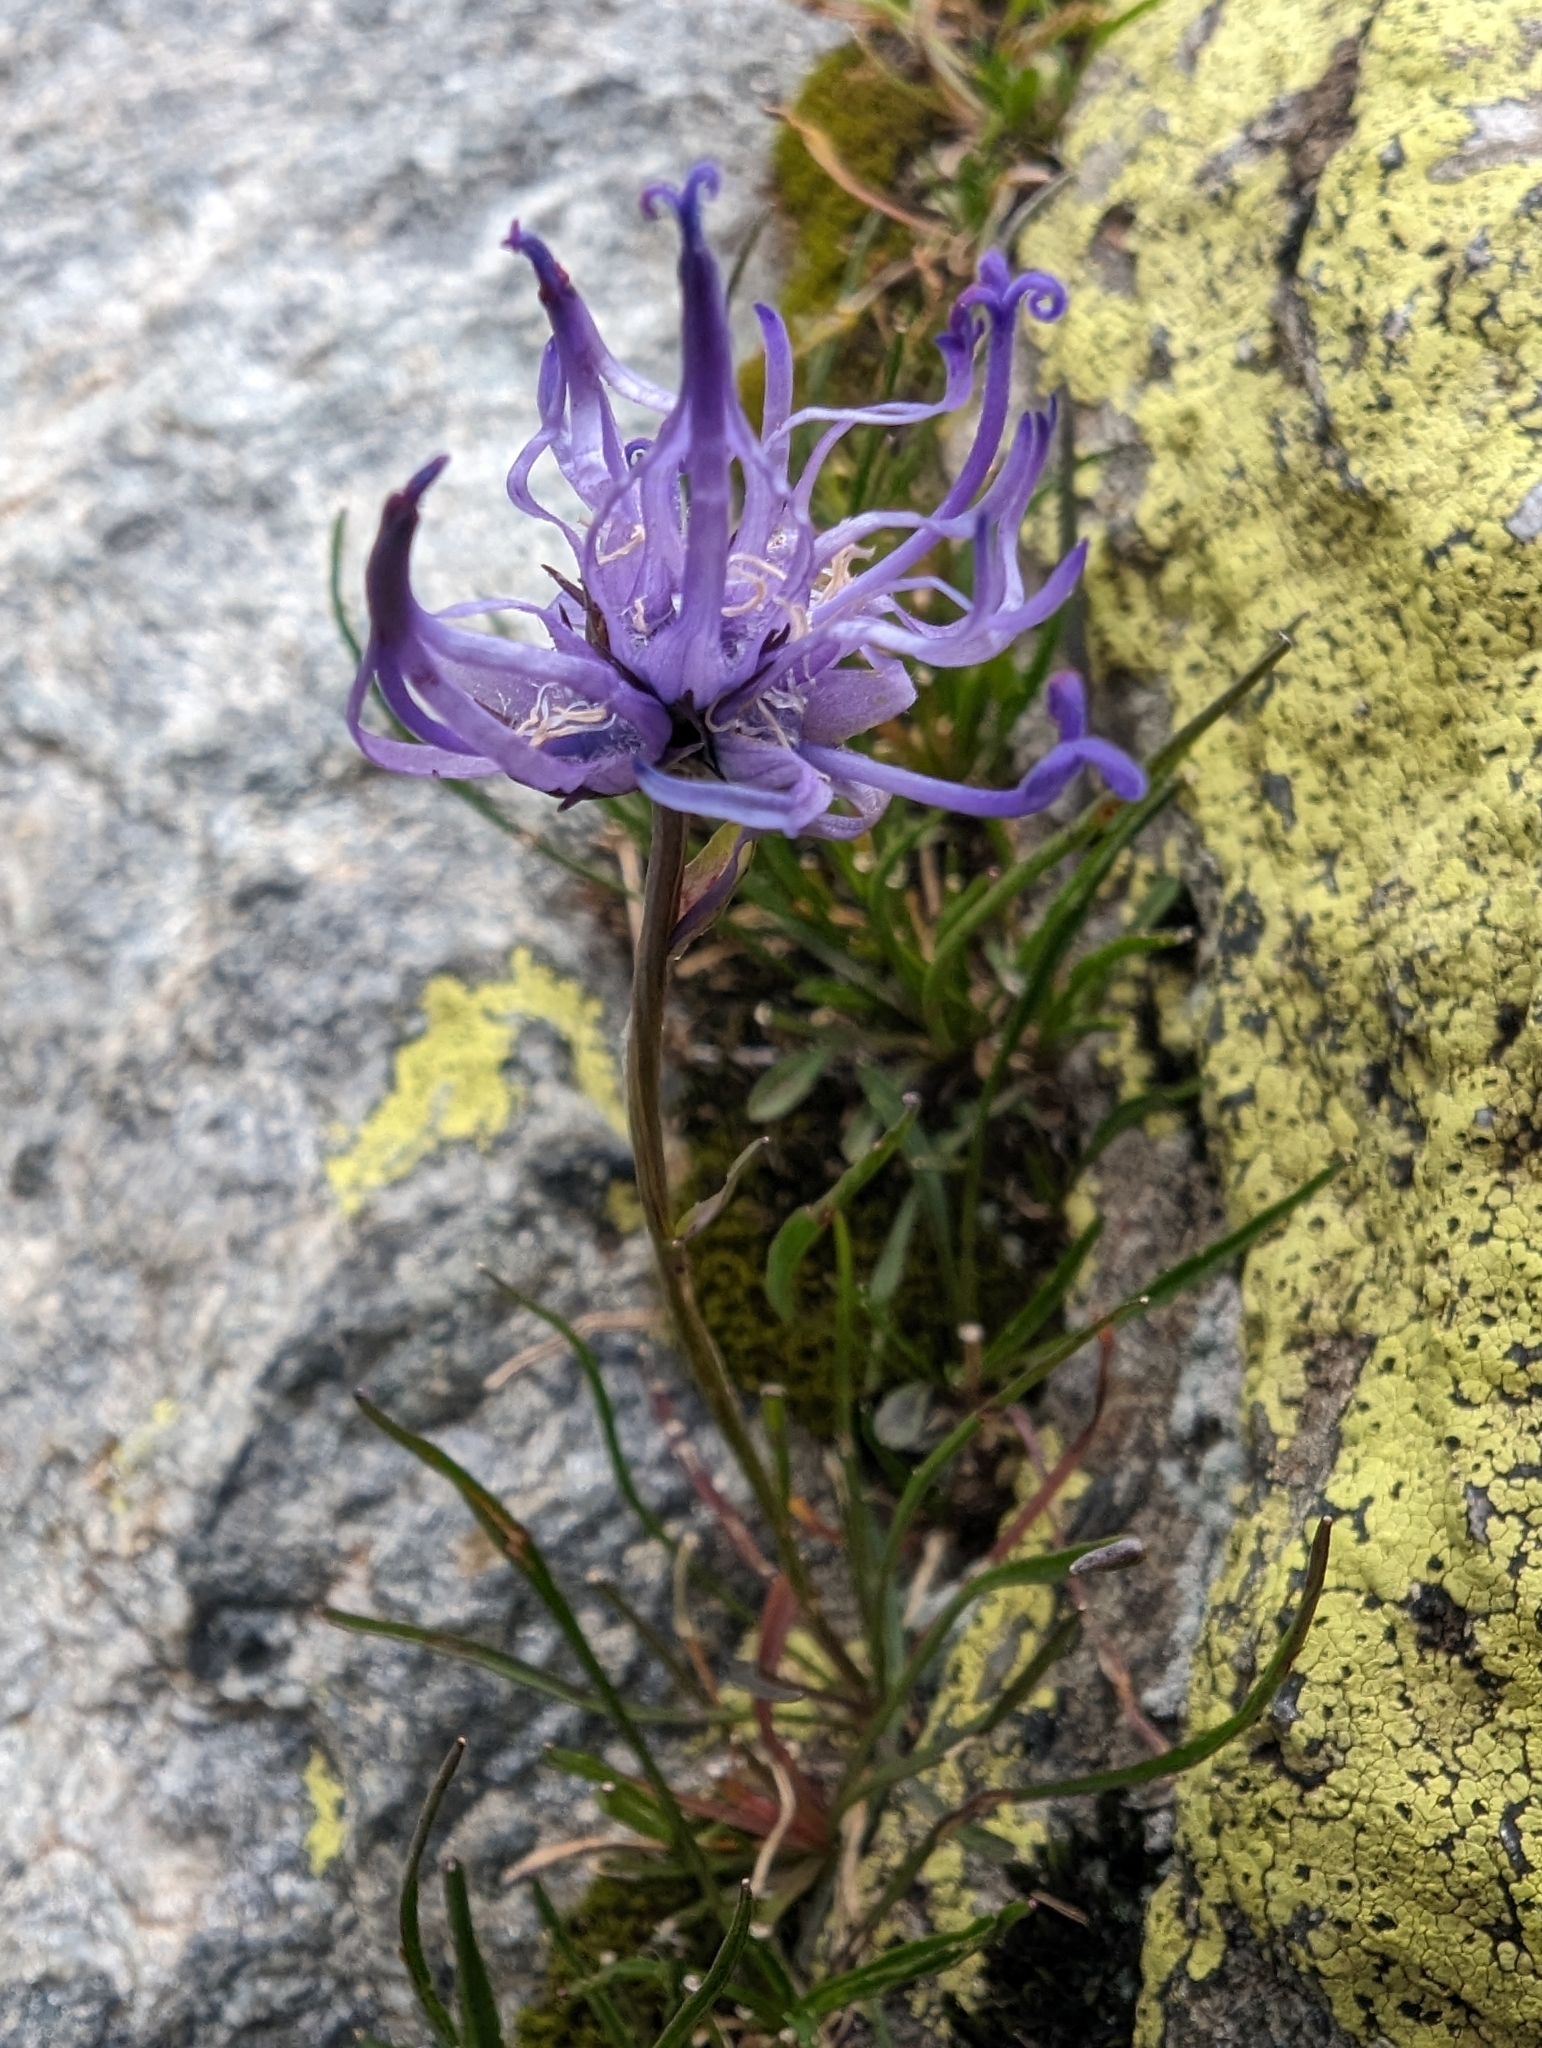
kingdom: Plantae
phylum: Tracheophyta
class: Magnoliopsida
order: Asterales
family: Campanulaceae
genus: Phyteuma
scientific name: Phyteuma hemisphaericum
